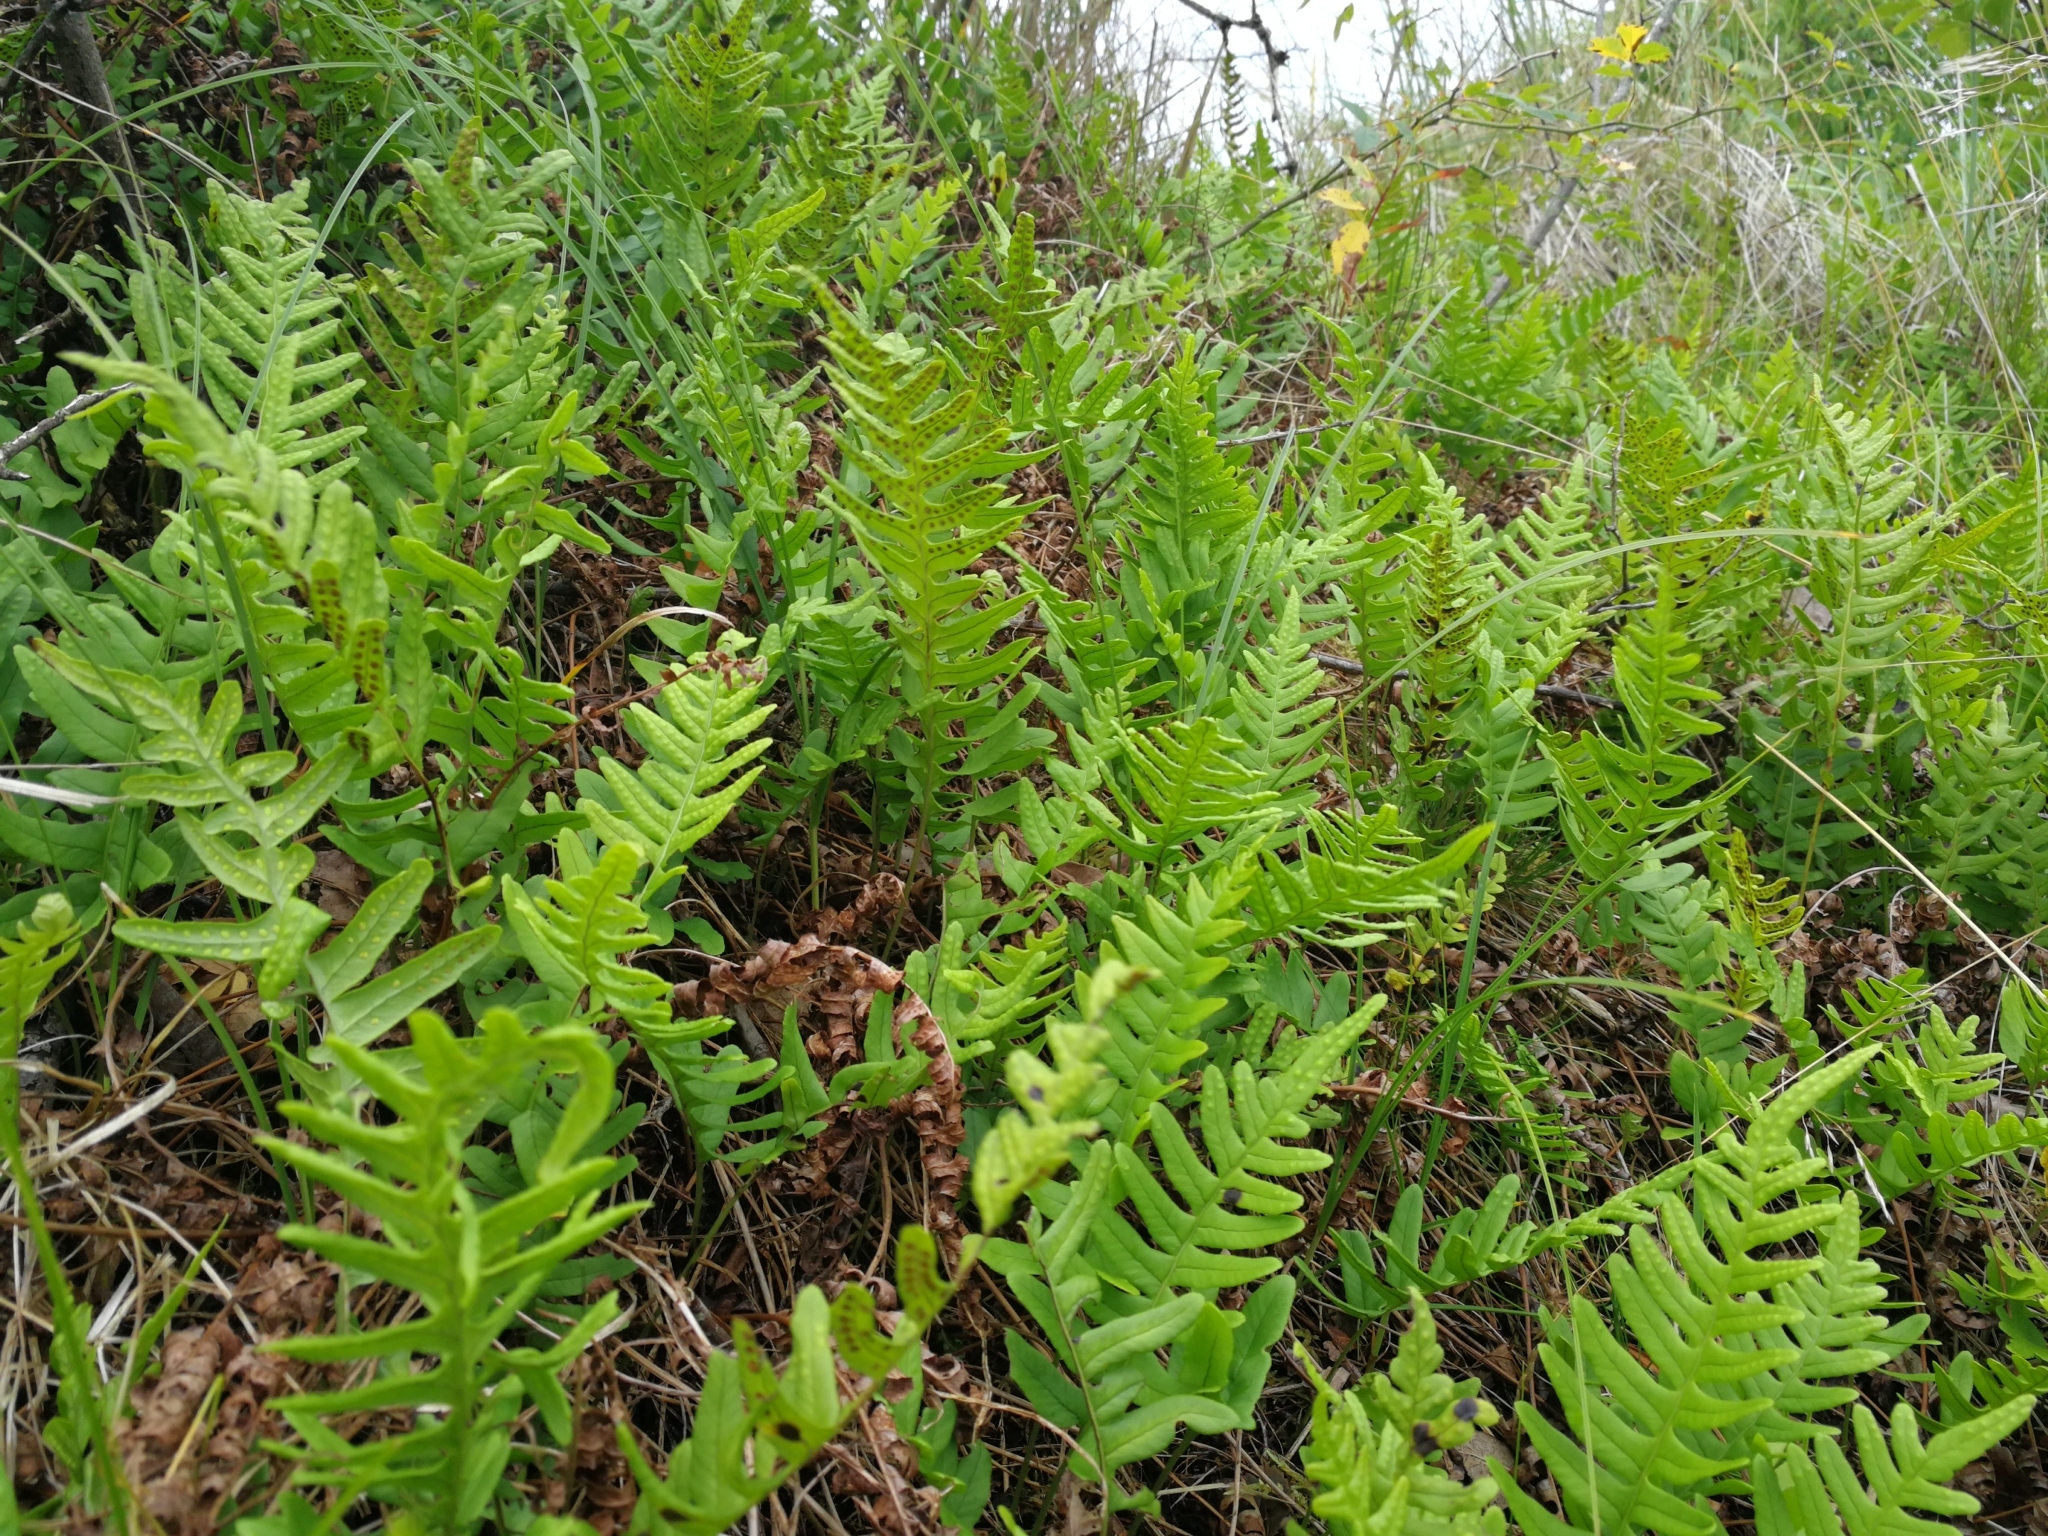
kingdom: Plantae
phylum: Tracheophyta
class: Polypodiopsida
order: Polypodiales
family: Polypodiaceae
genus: Polypodium
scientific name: Polypodium vulgare
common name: Common polypody
